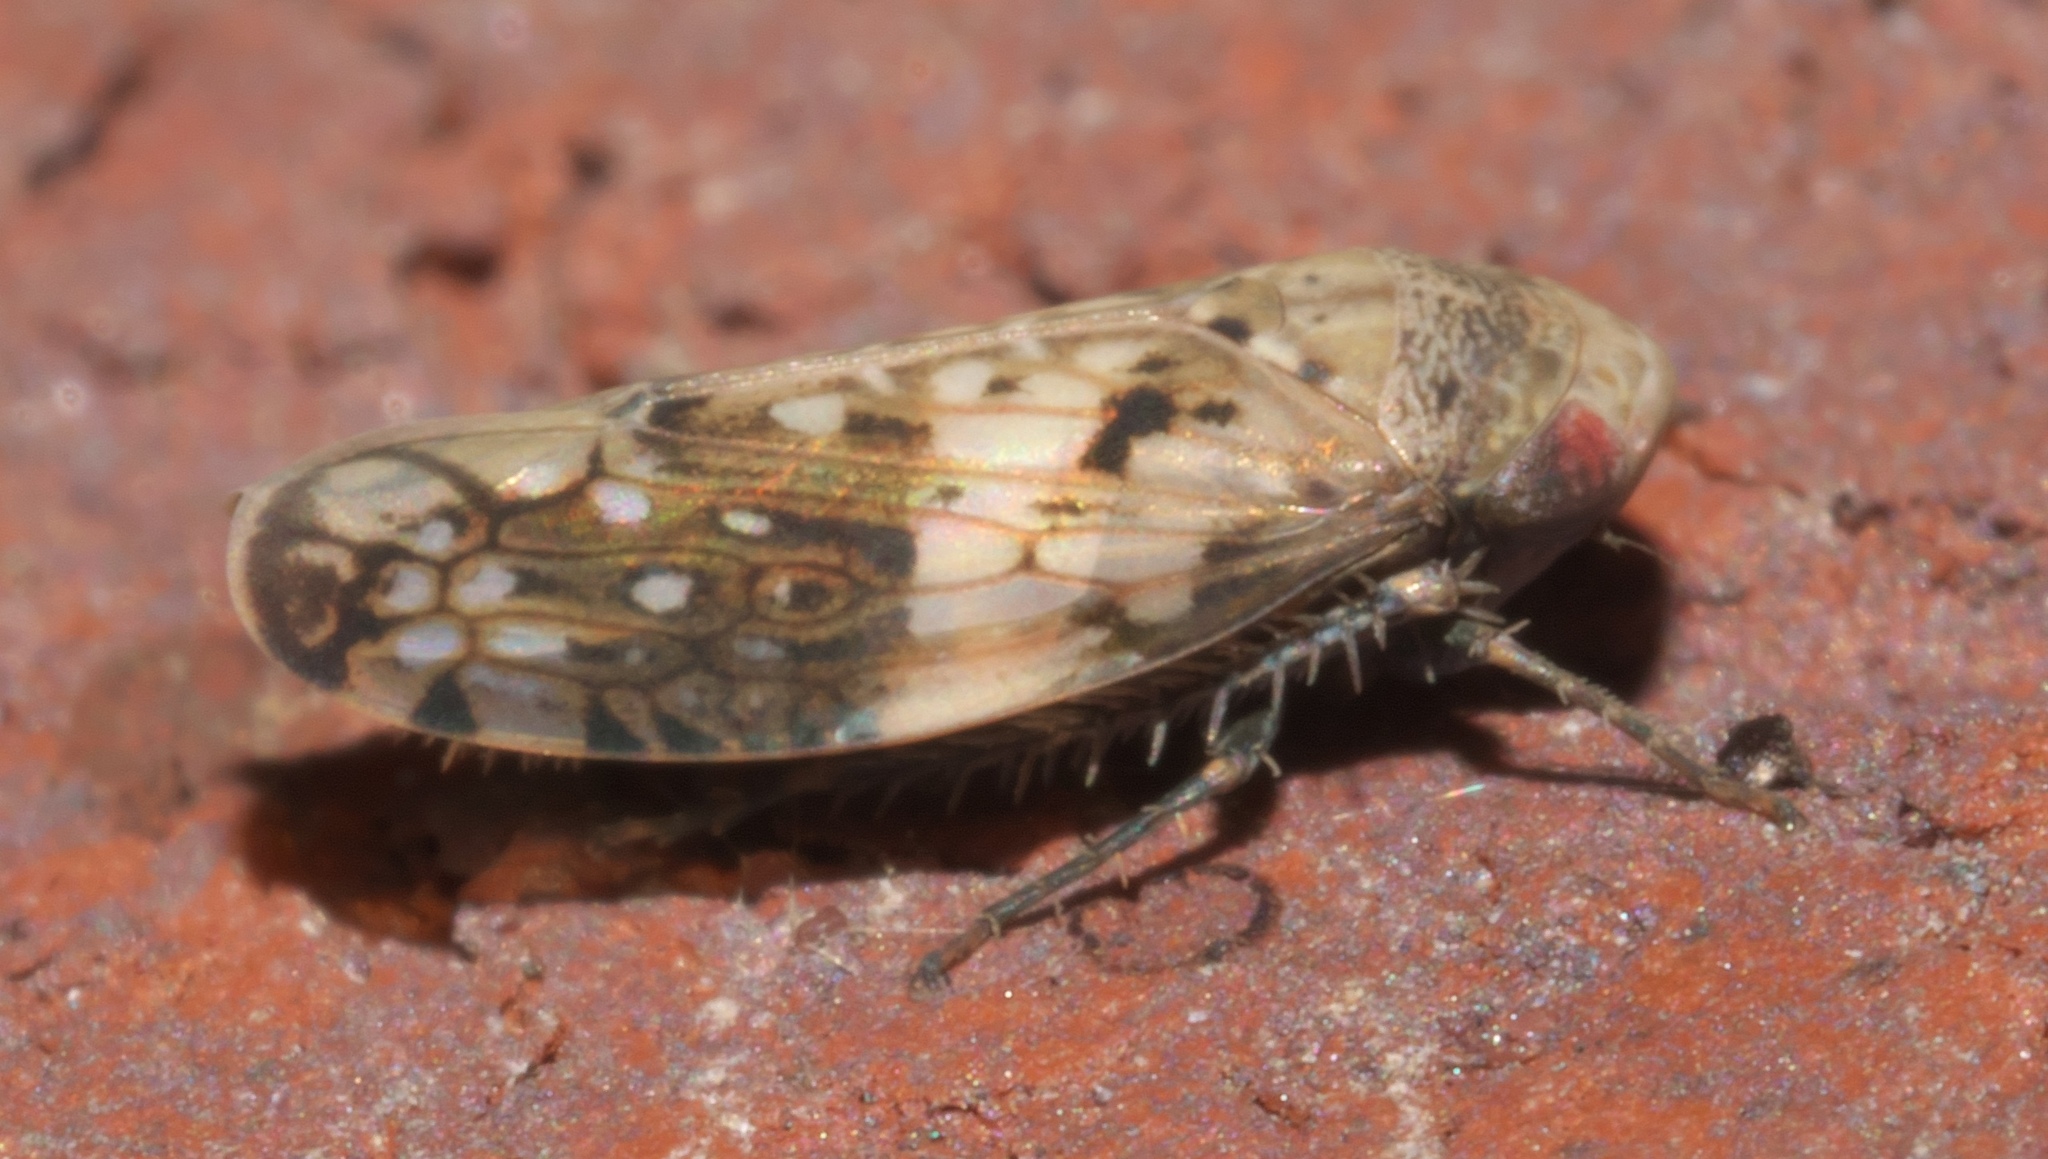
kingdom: Animalia
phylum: Arthropoda
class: Insecta
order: Hemiptera
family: Cicadellidae
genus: Menosoma
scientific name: Menosoma cinctum
